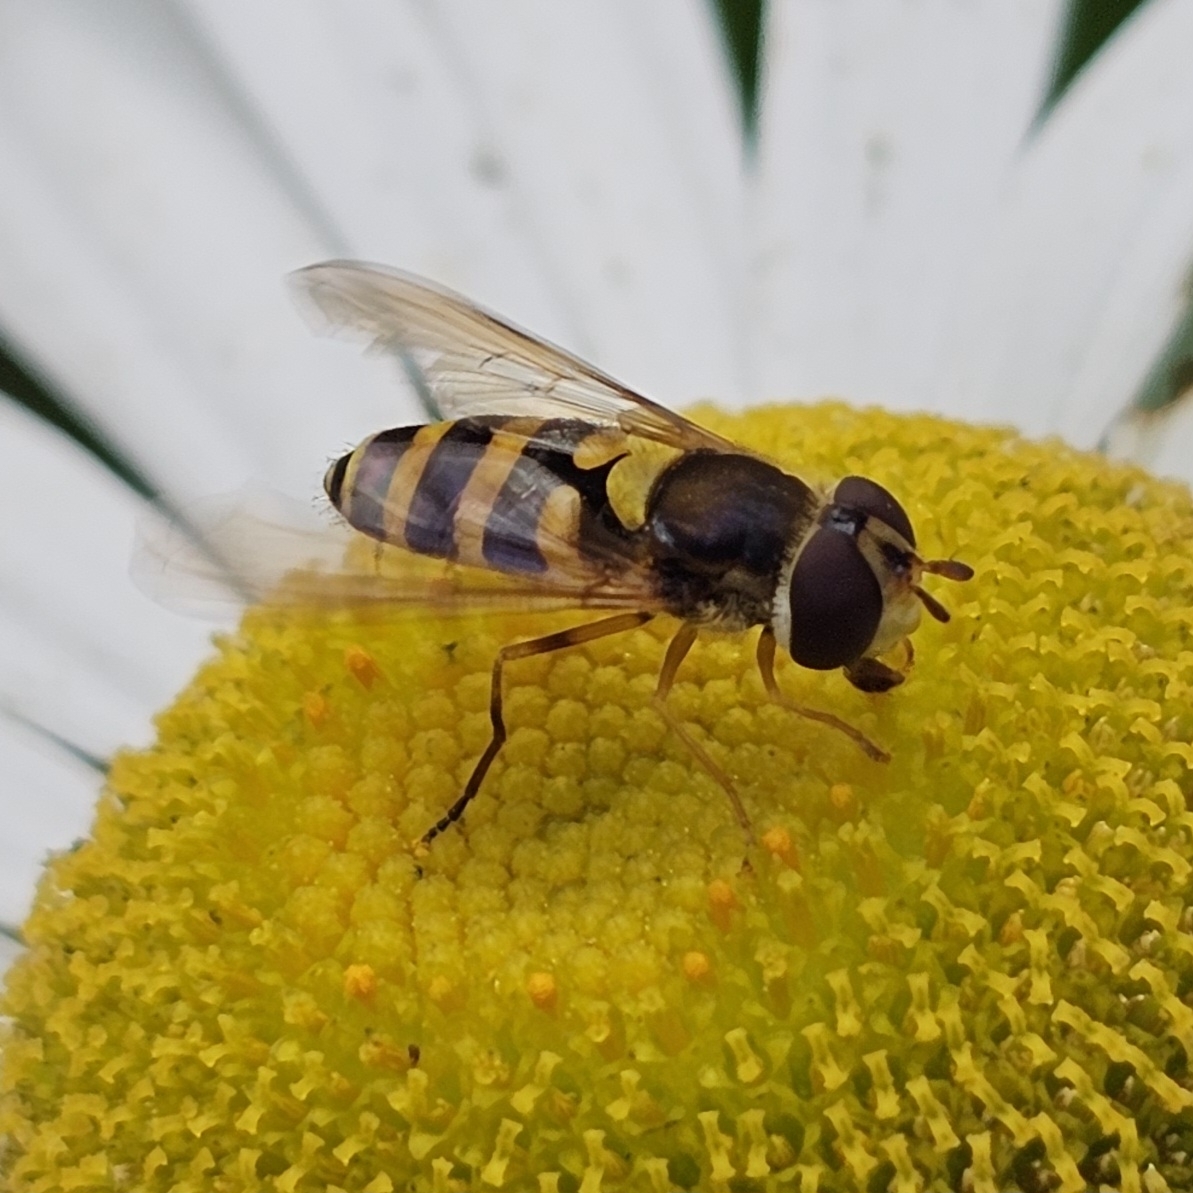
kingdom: Animalia
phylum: Arthropoda
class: Insecta
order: Diptera
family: Syrphidae
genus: Syrphus
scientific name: Syrphus rectus
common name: Yellow-legged flower fly
